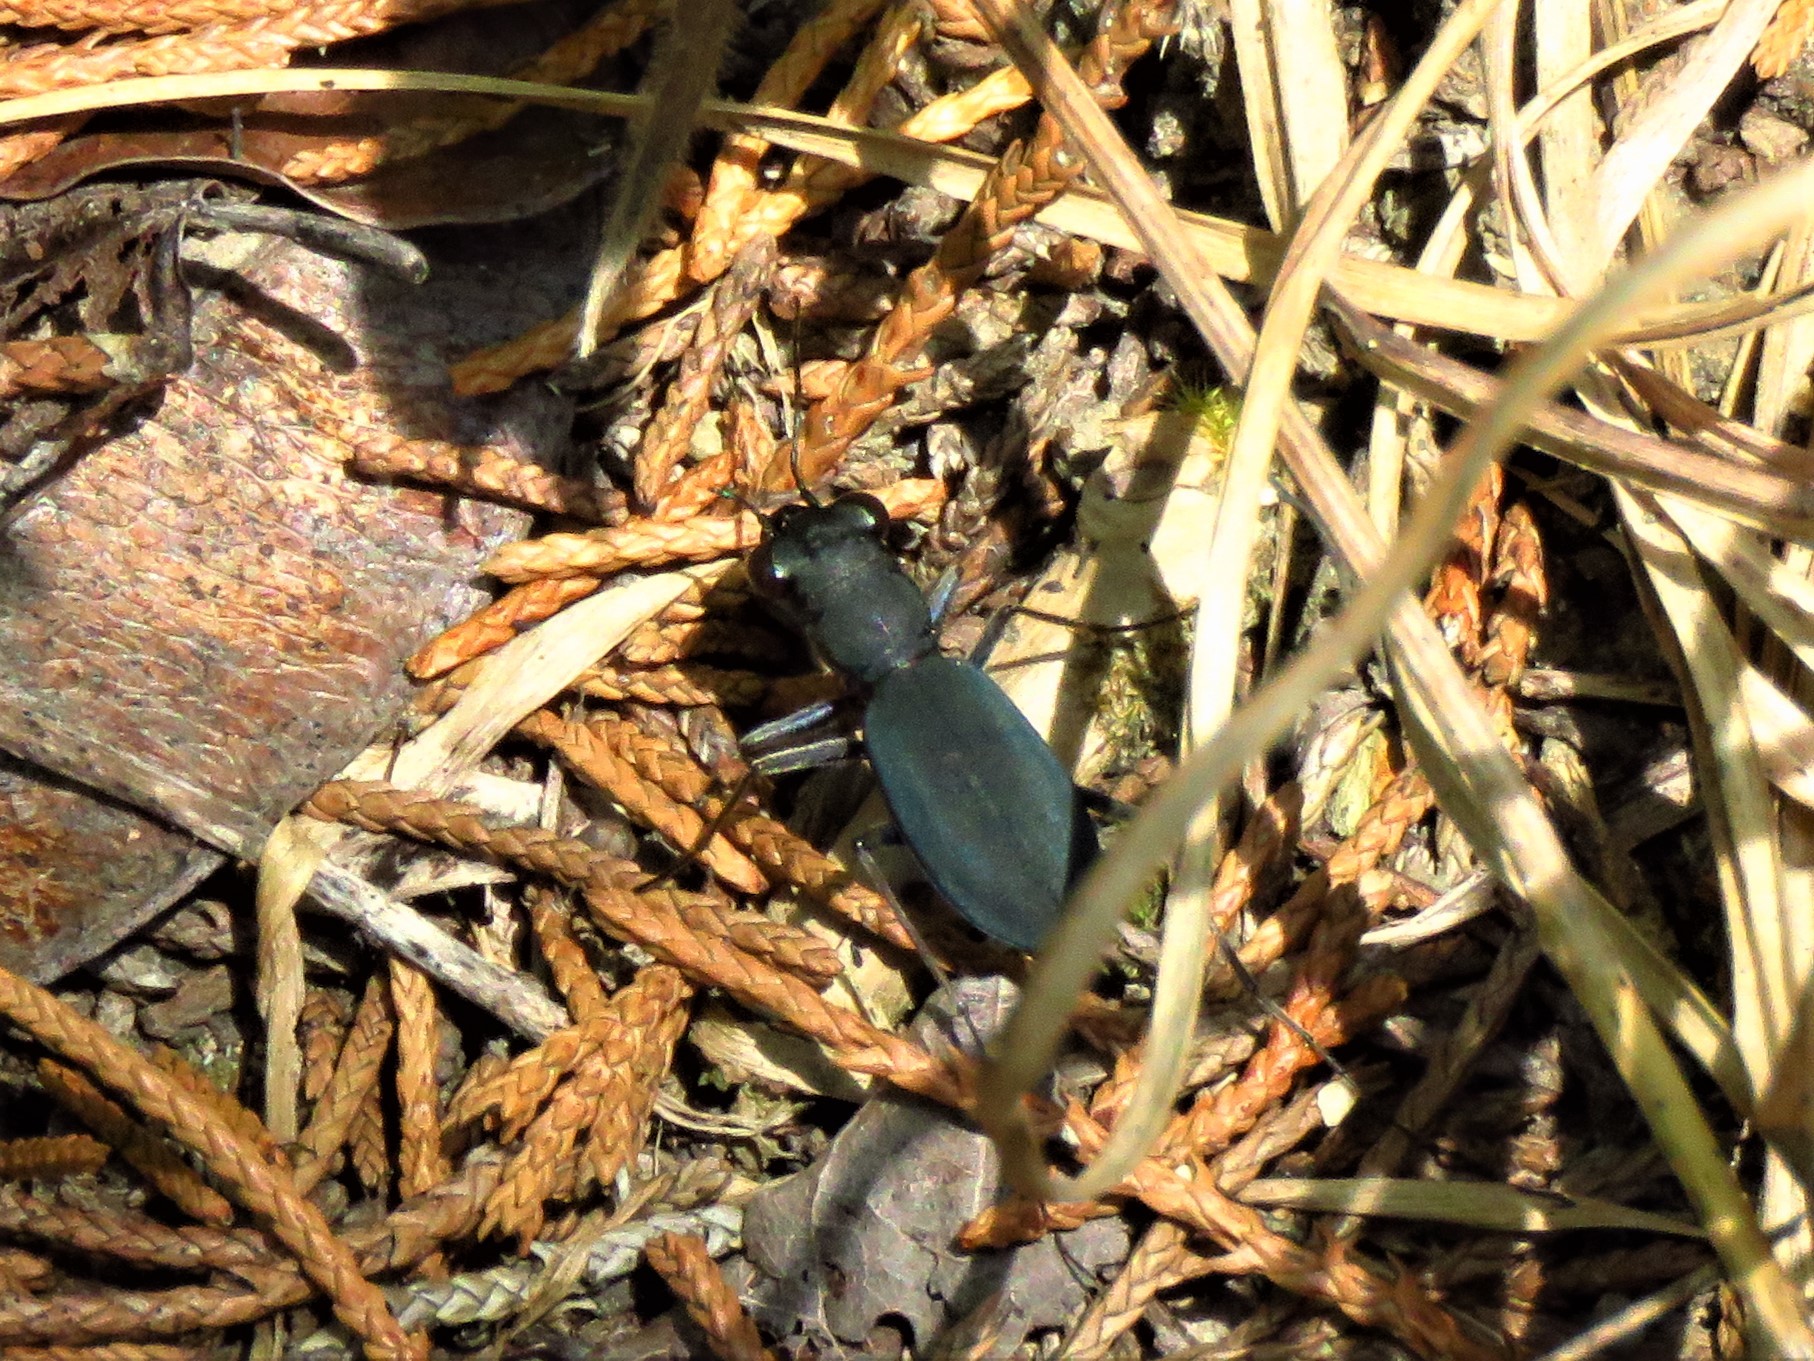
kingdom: Animalia
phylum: Arthropoda
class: Insecta
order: Coleoptera
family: Carabidae
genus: Dromochorus
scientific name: Dromochorus pruininus
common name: Frosted dromo tiger beetle
